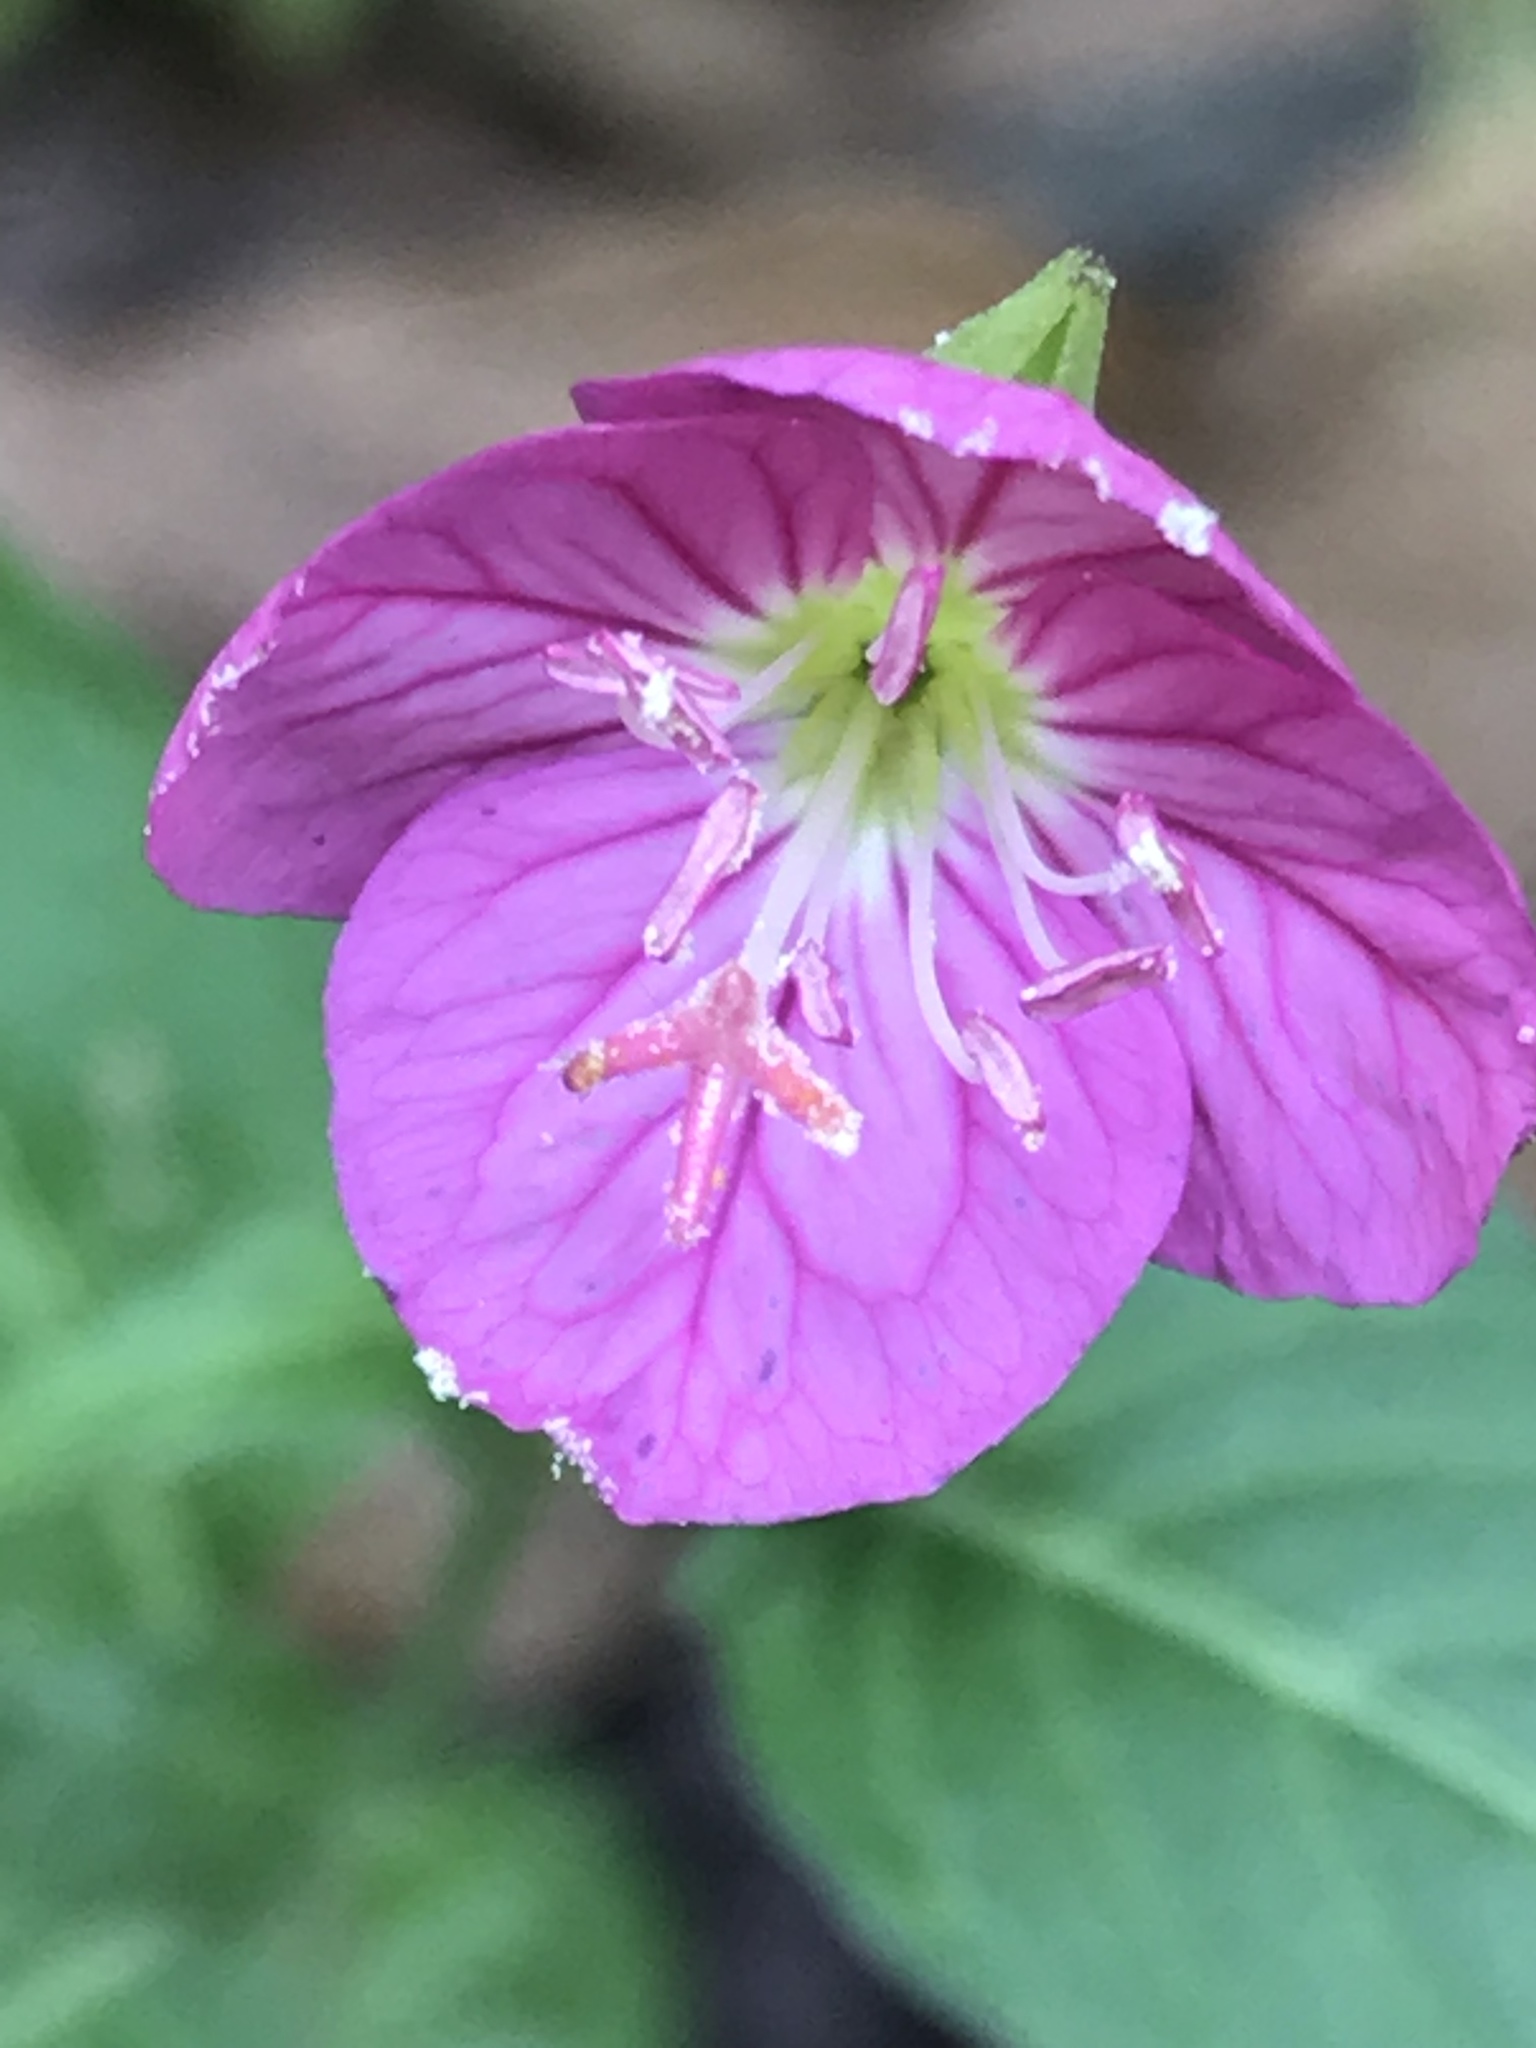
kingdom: Plantae
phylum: Tracheophyta
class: Magnoliopsida
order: Myrtales
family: Onagraceae
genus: Oenothera
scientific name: Oenothera rosea
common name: Rosy evening-primrose
